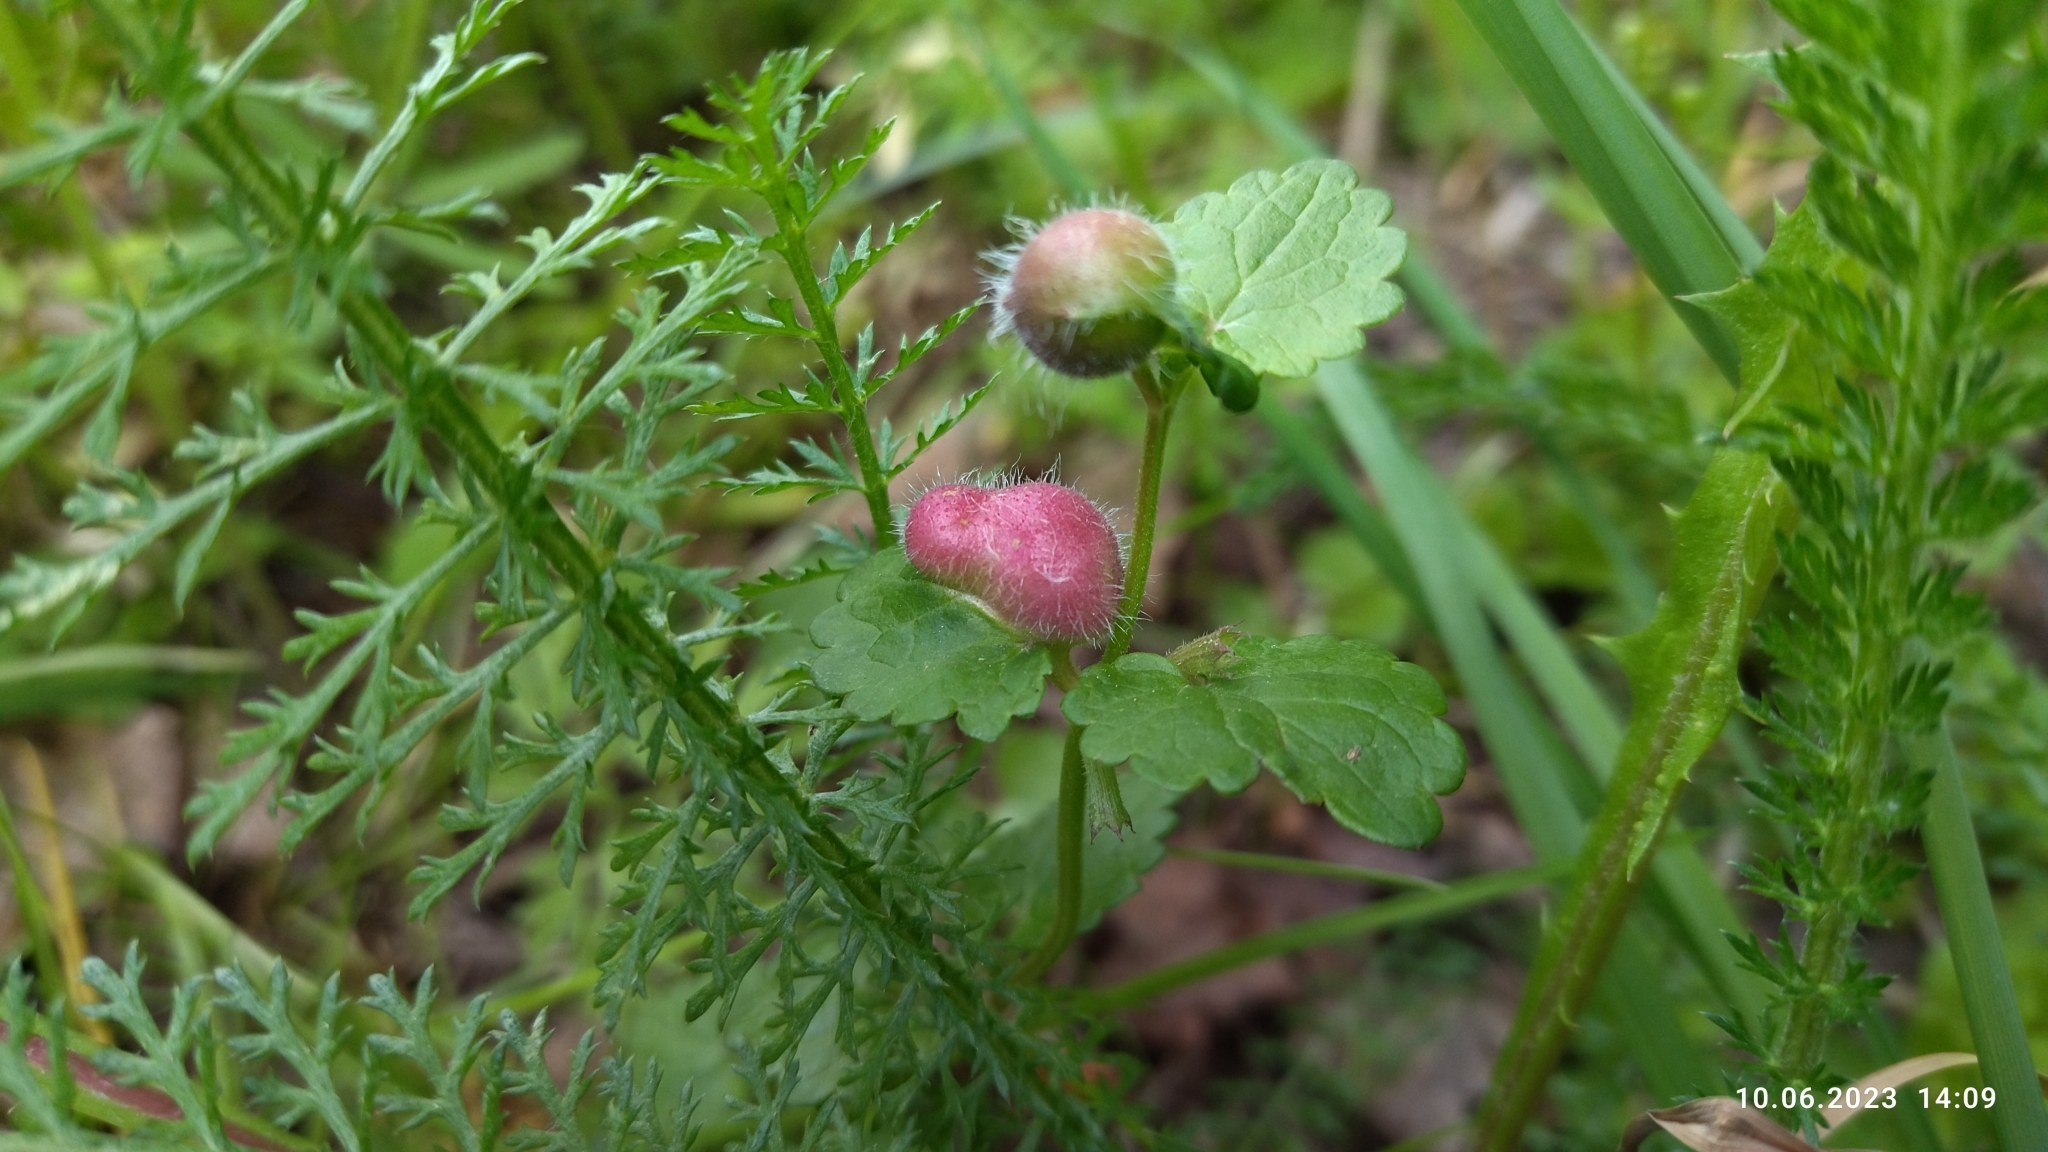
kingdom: Animalia
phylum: Arthropoda
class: Insecta
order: Hymenoptera
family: Cynipidae
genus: Liposthenes
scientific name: Liposthenes glechomae
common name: Gall wasp
